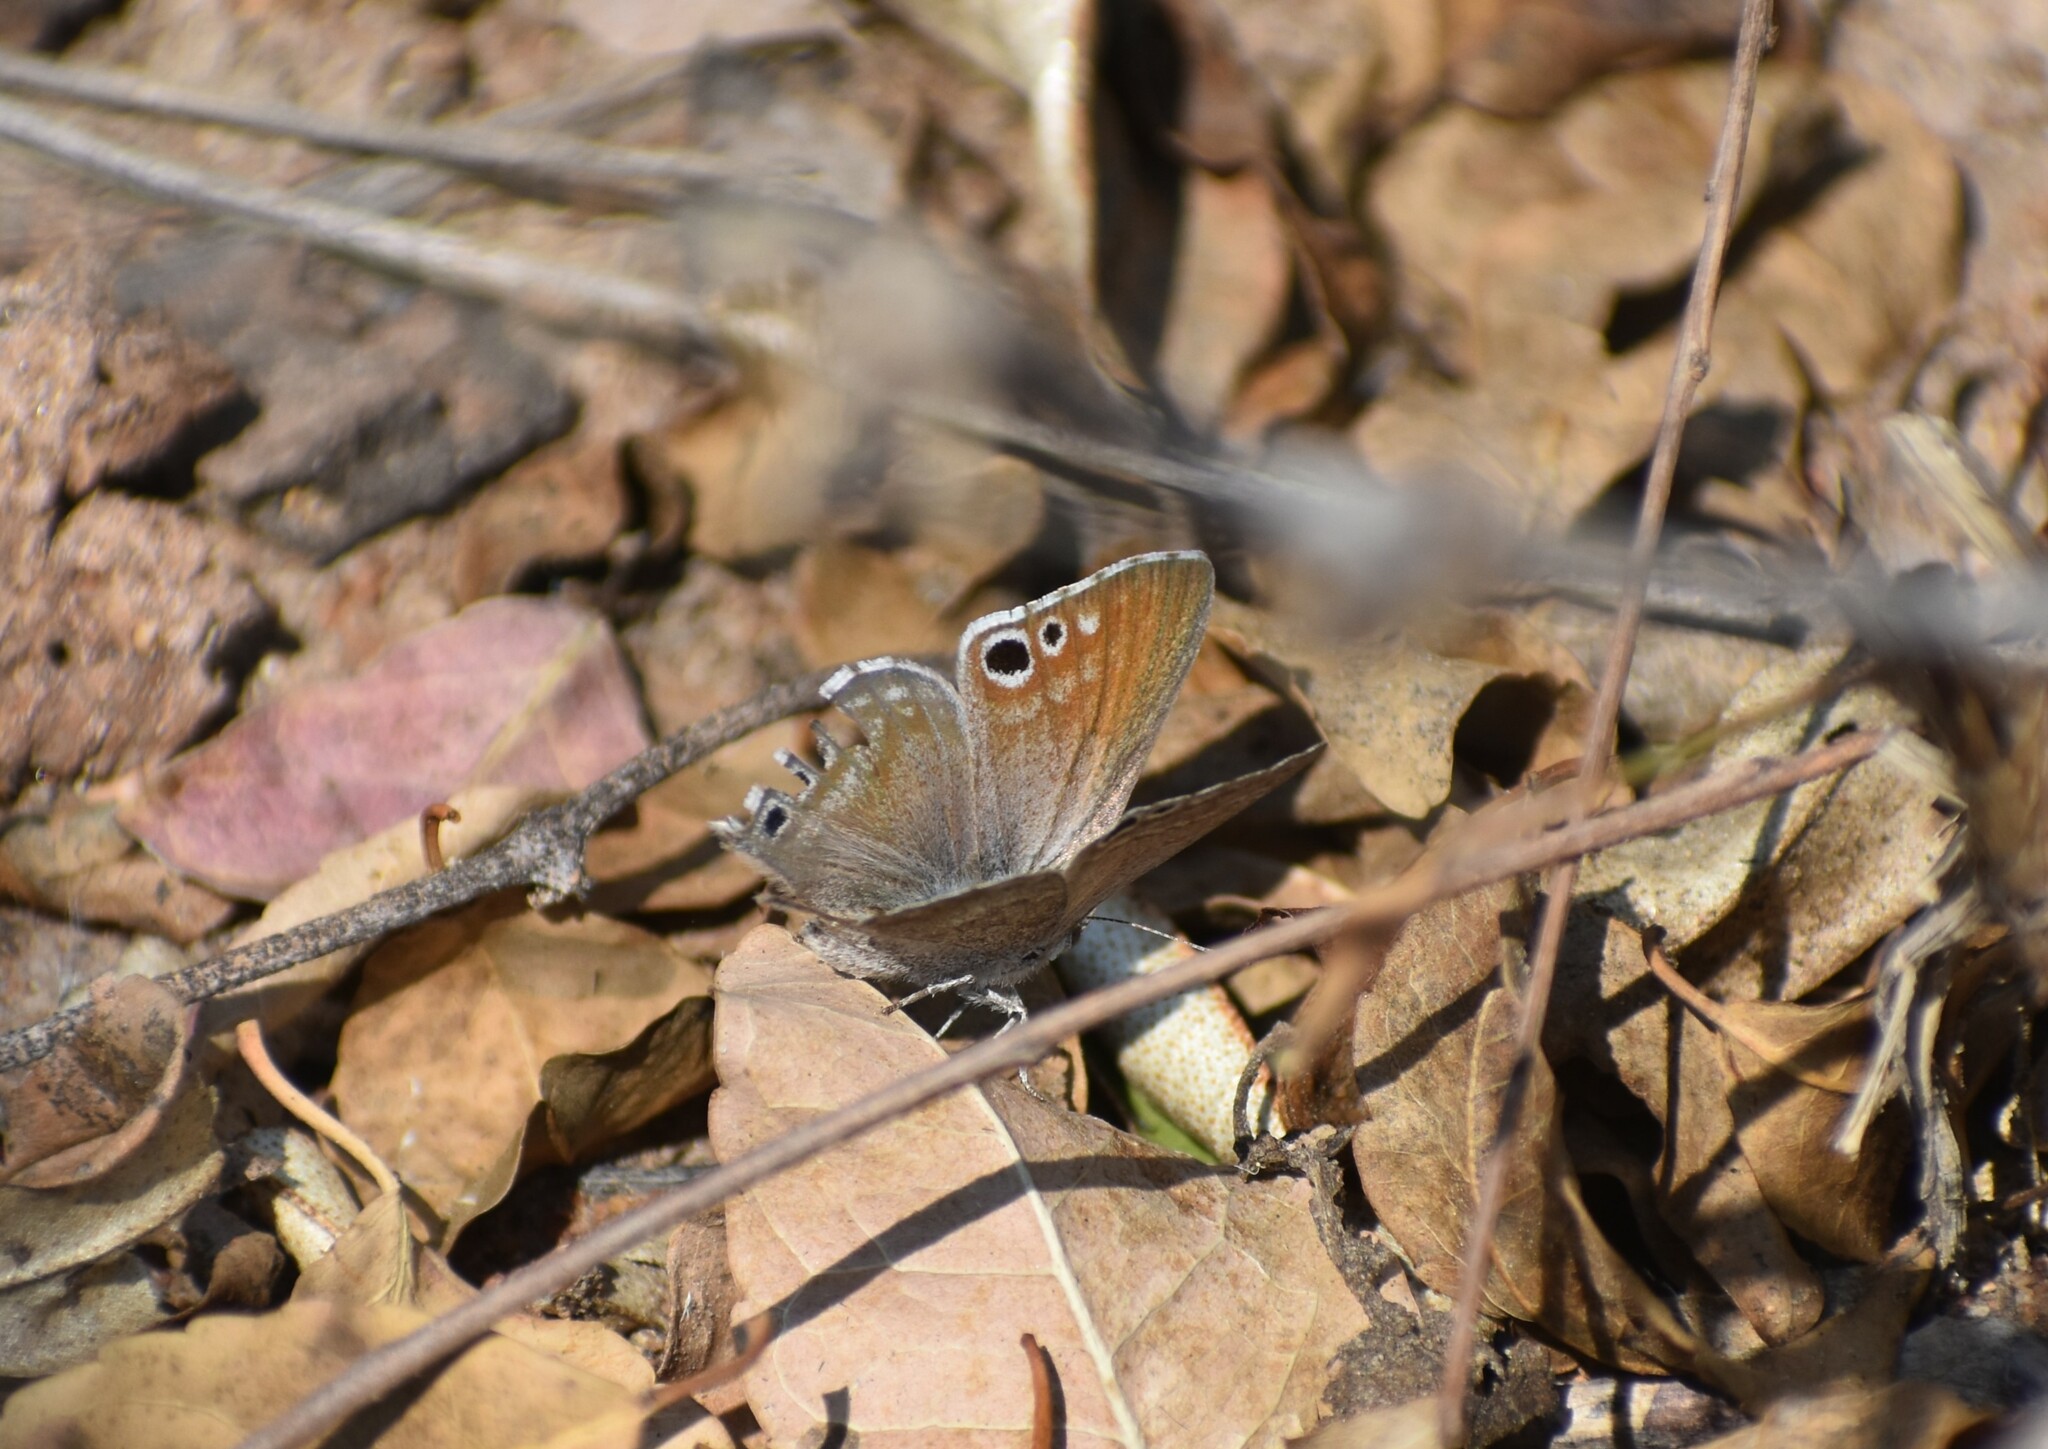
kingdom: Animalia
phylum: Arthropoda
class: Insecta
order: Lepidoptera
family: Lycaenidae
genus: Leptomyrina
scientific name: Leptomyrina gorgias
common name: Common black-eye
